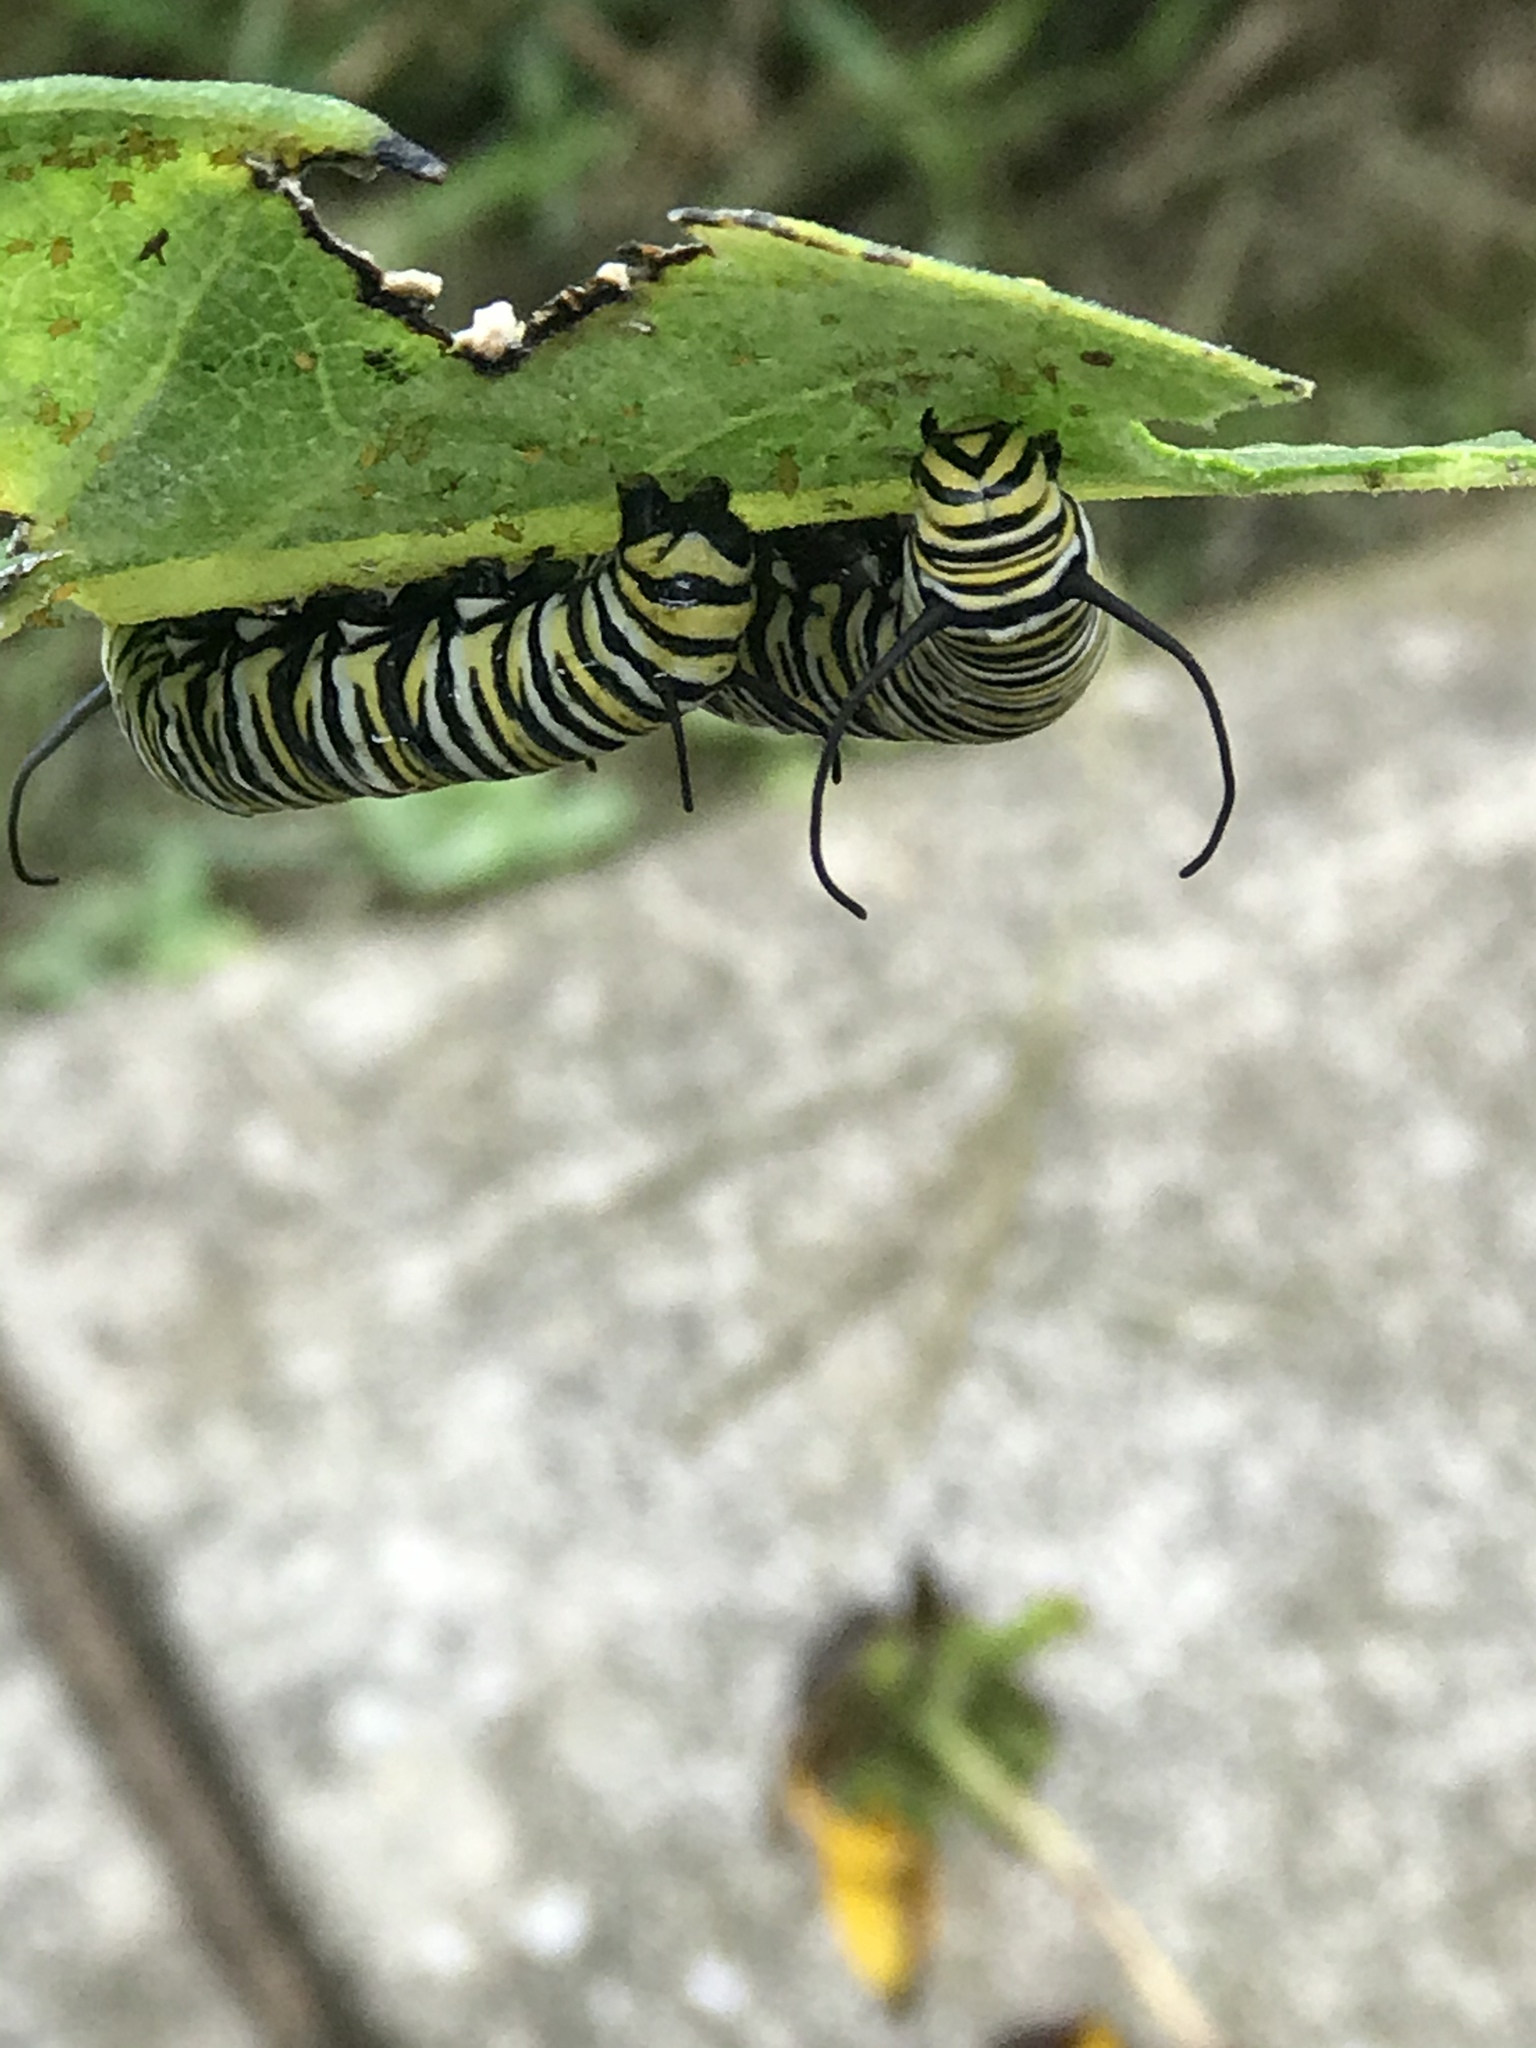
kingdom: Animalia
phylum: Arthropoda
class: Insecta
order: Lepidoptera
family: Nymphalidae
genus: Danaus
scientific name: Danaus plexippus
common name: Monarch
